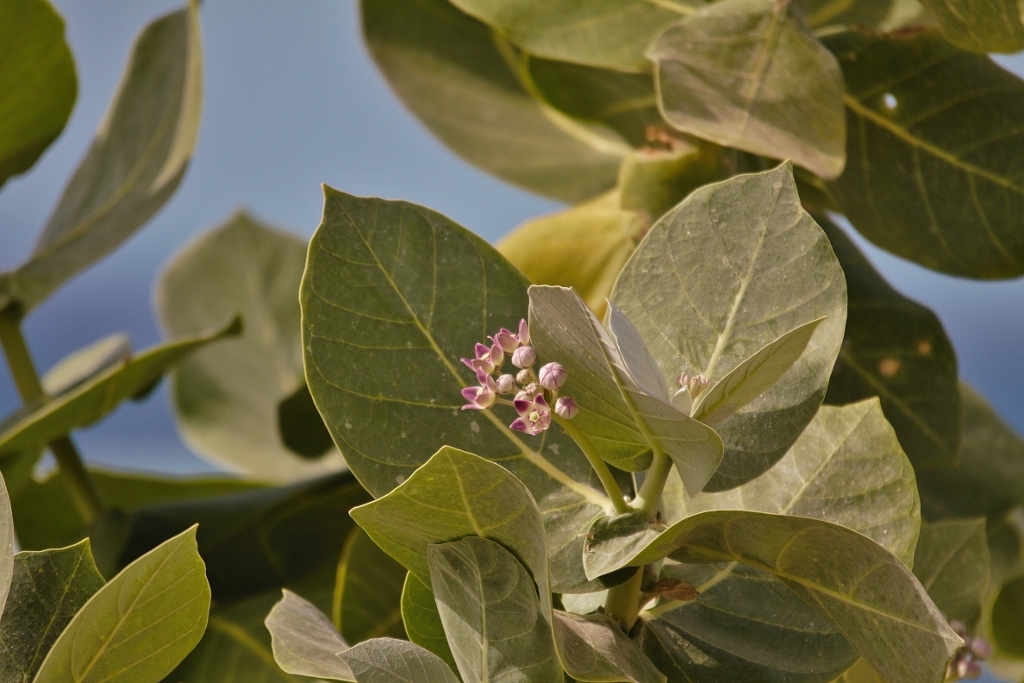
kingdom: Plantae
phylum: Tracheophyta
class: Magnoliopsida
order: Gentianales
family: Apocynaceae
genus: Calotropis
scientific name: Calotropis procera
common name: Roostertree
